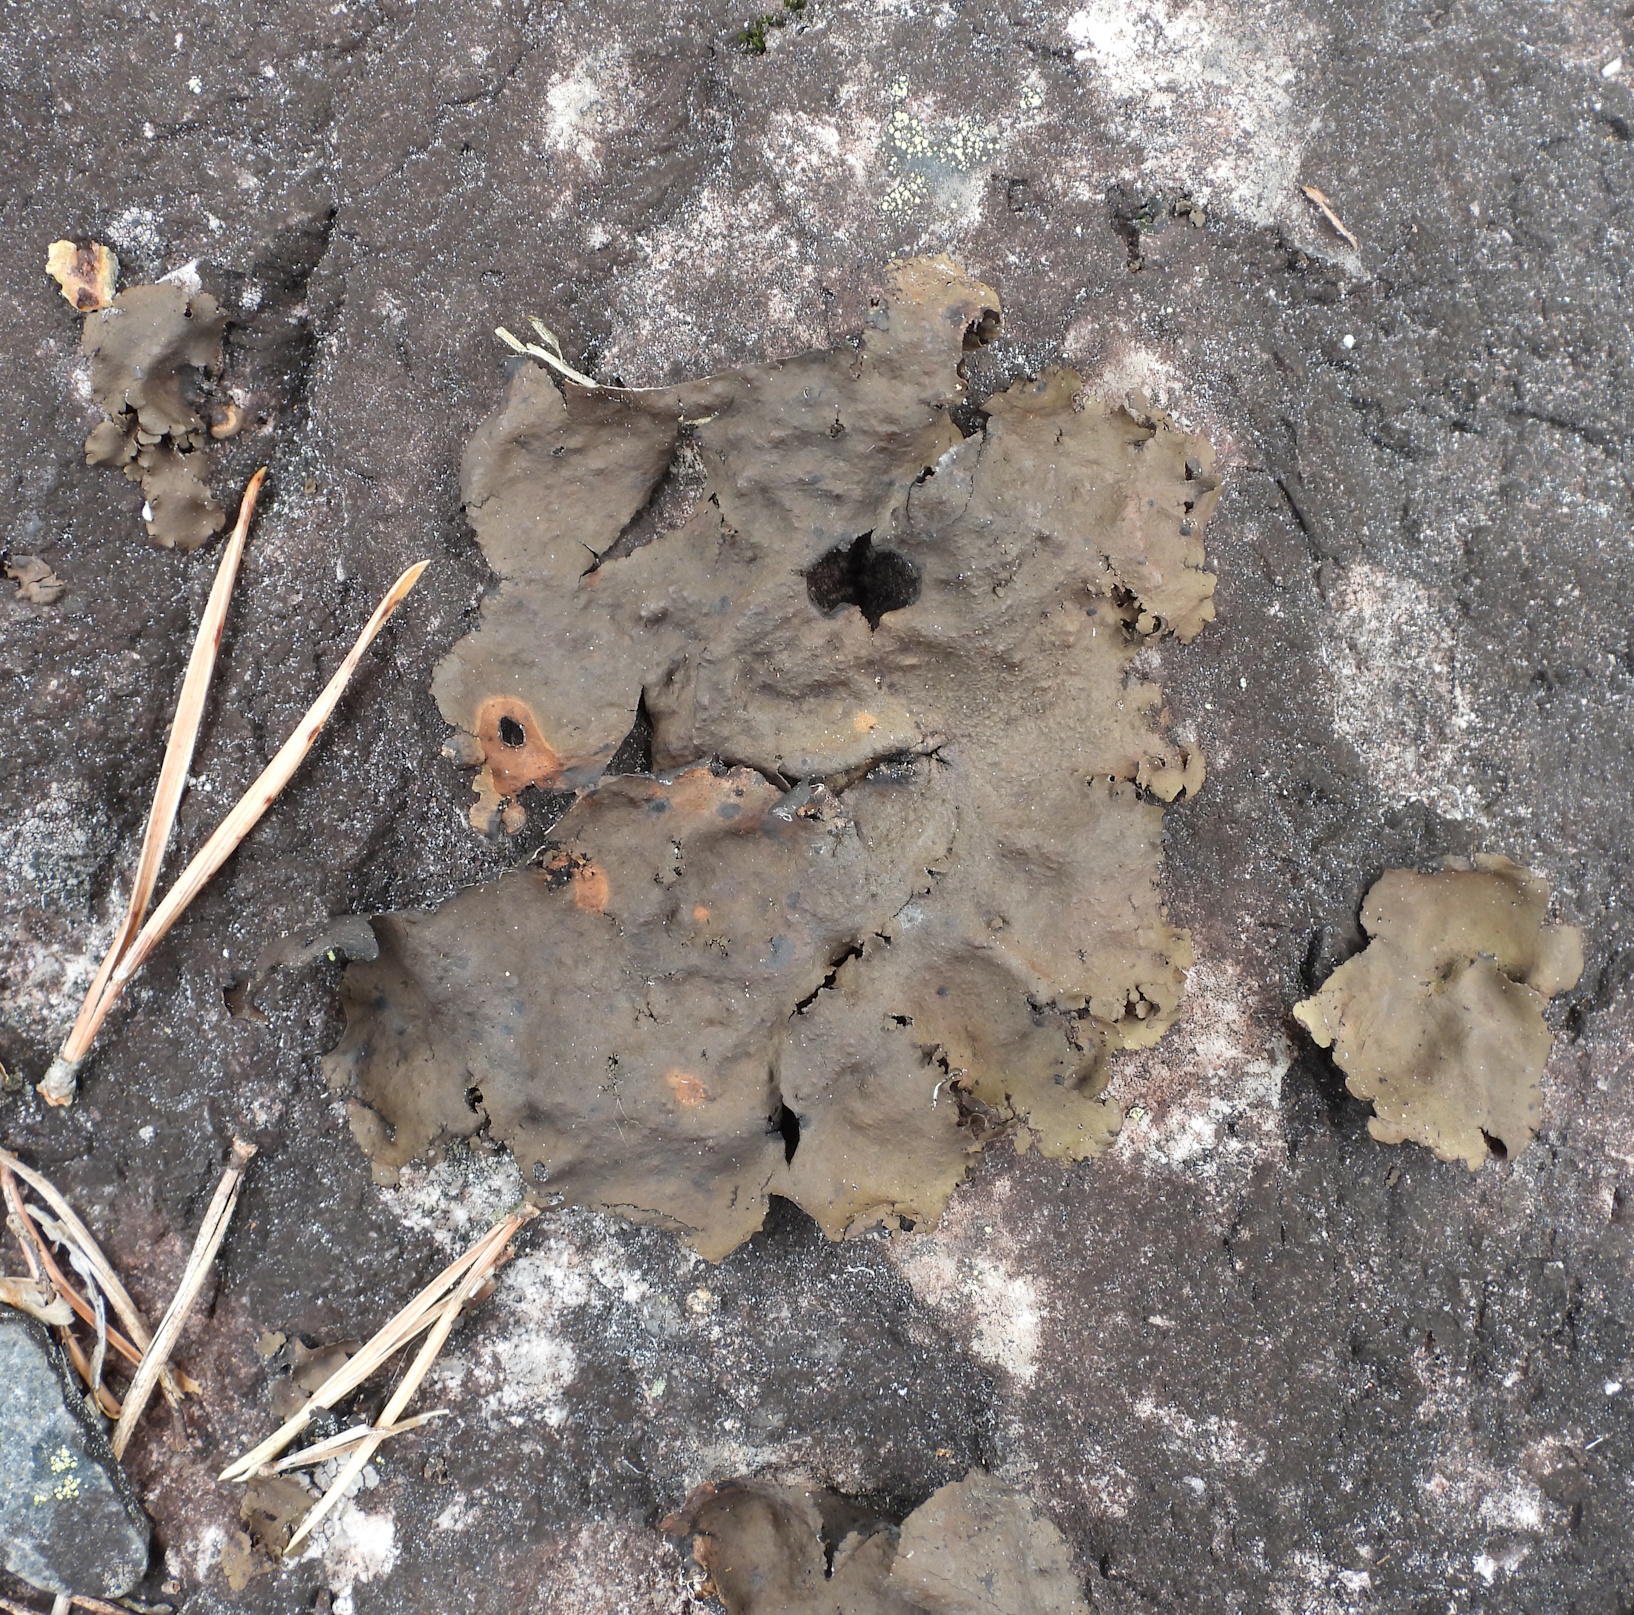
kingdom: Fungi
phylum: Ascomycota
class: Lecanoromycetes
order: Umbilicariales
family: Umbilicariaceae
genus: Umbilicaria
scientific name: Umbilicaria polyphylla
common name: Petalled rocktripe lichen
